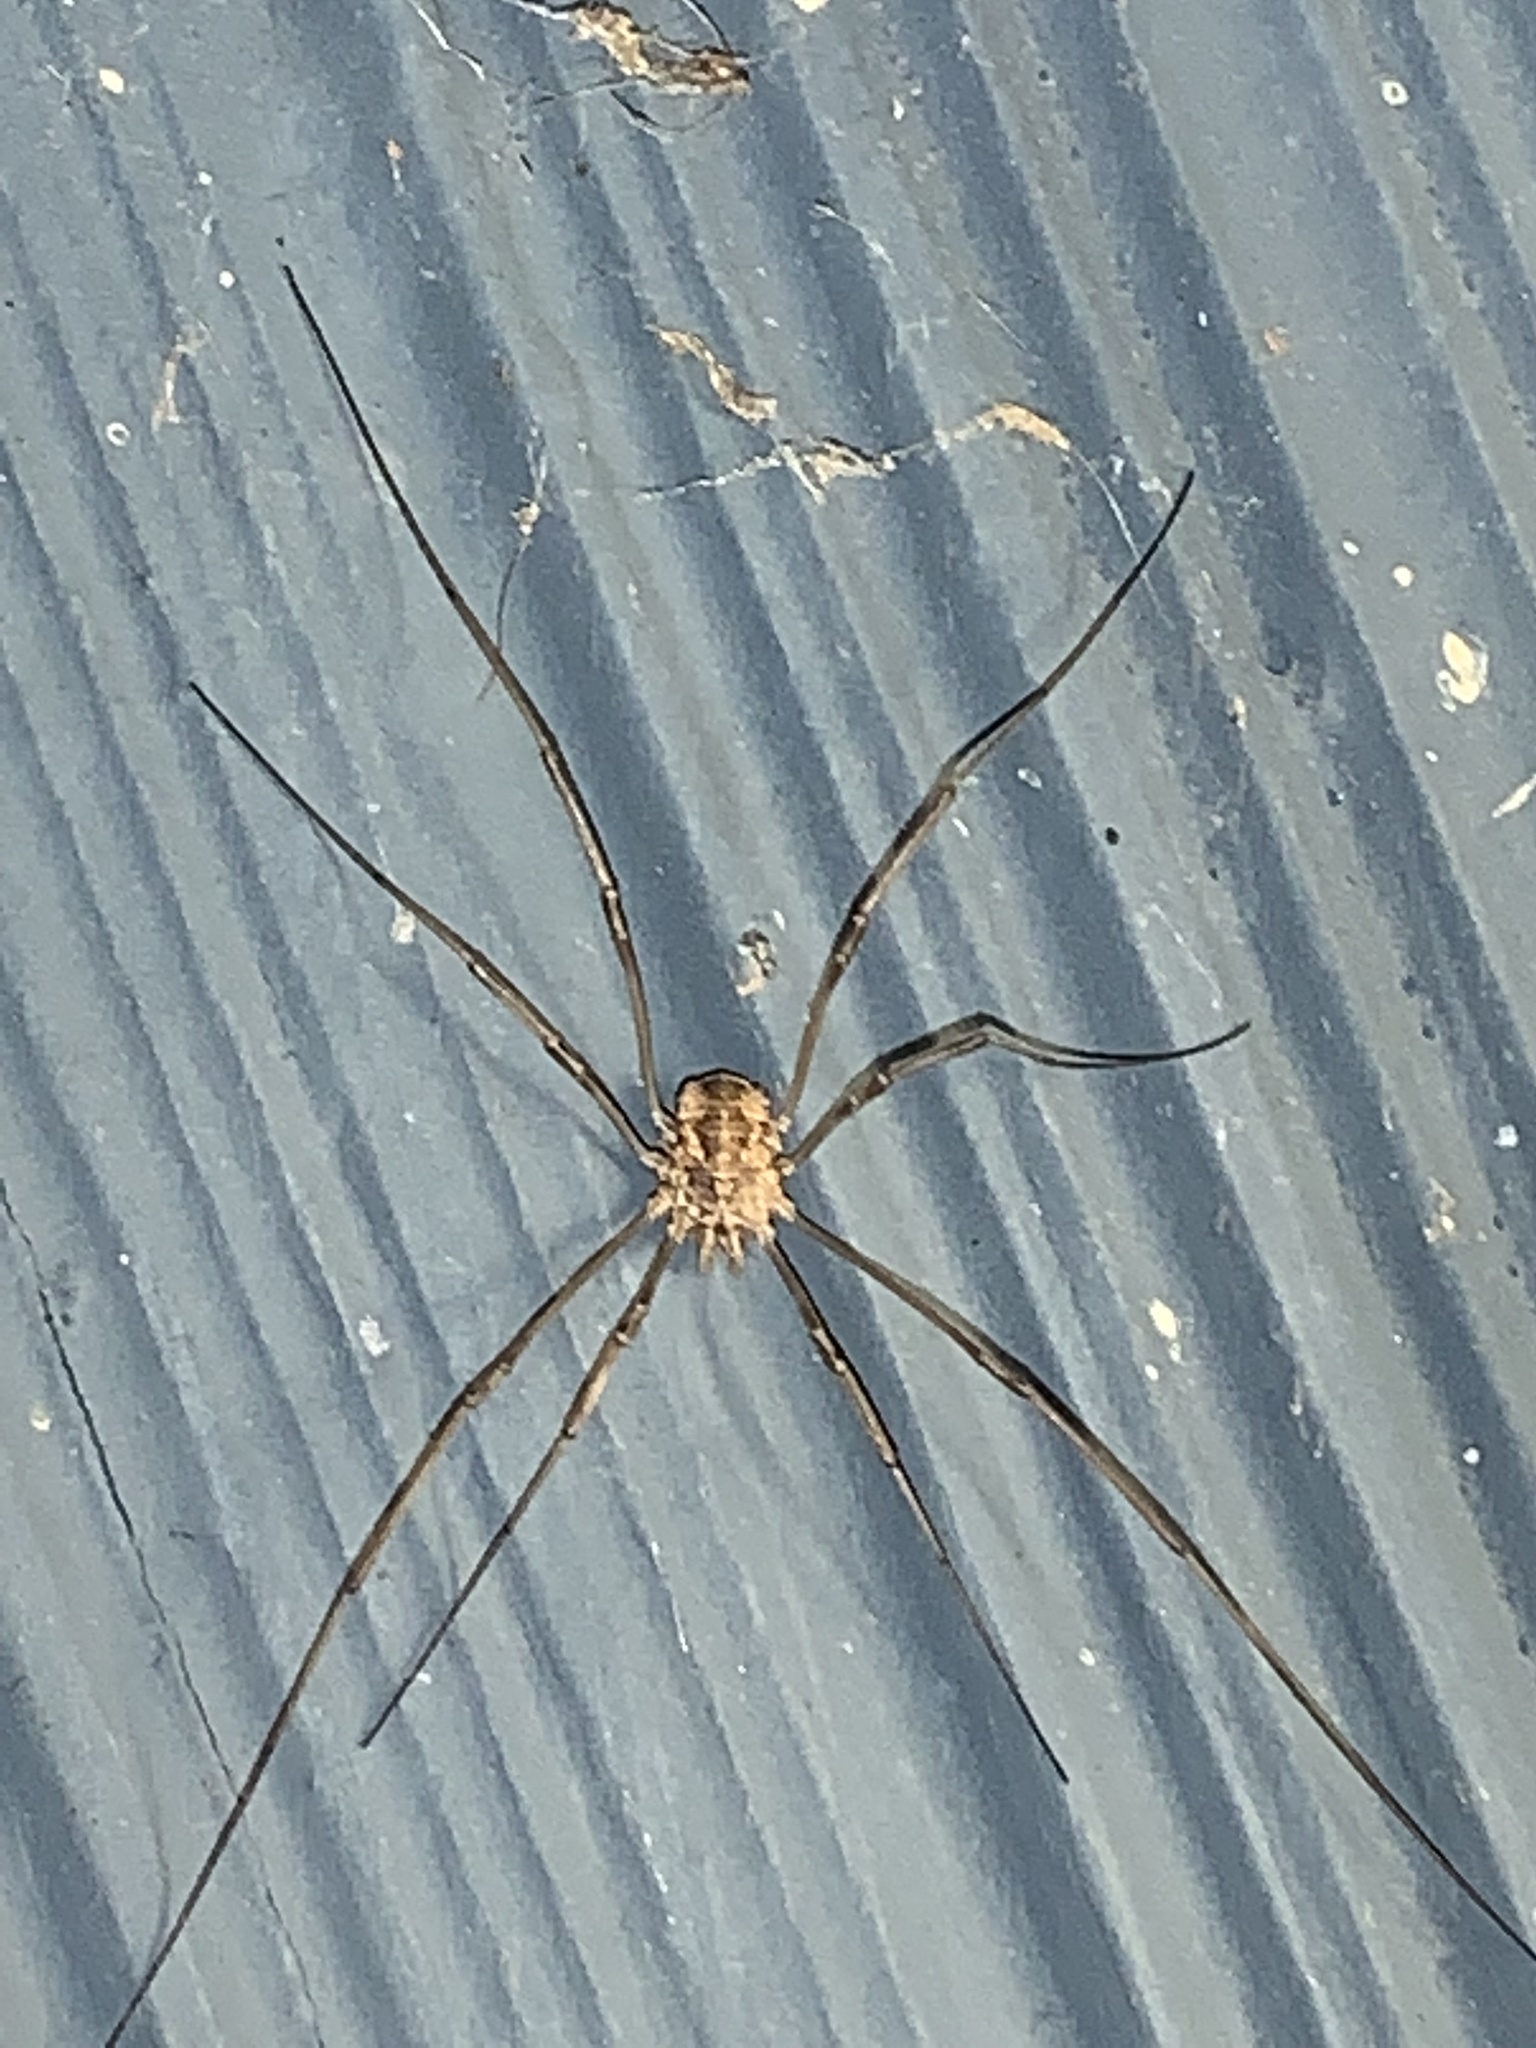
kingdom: Animalia
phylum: Arthropoda
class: Arachnida
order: Opiliones
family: Phalangiidae
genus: Phalangium
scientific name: Phalangium opilio
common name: Daddy longleg
